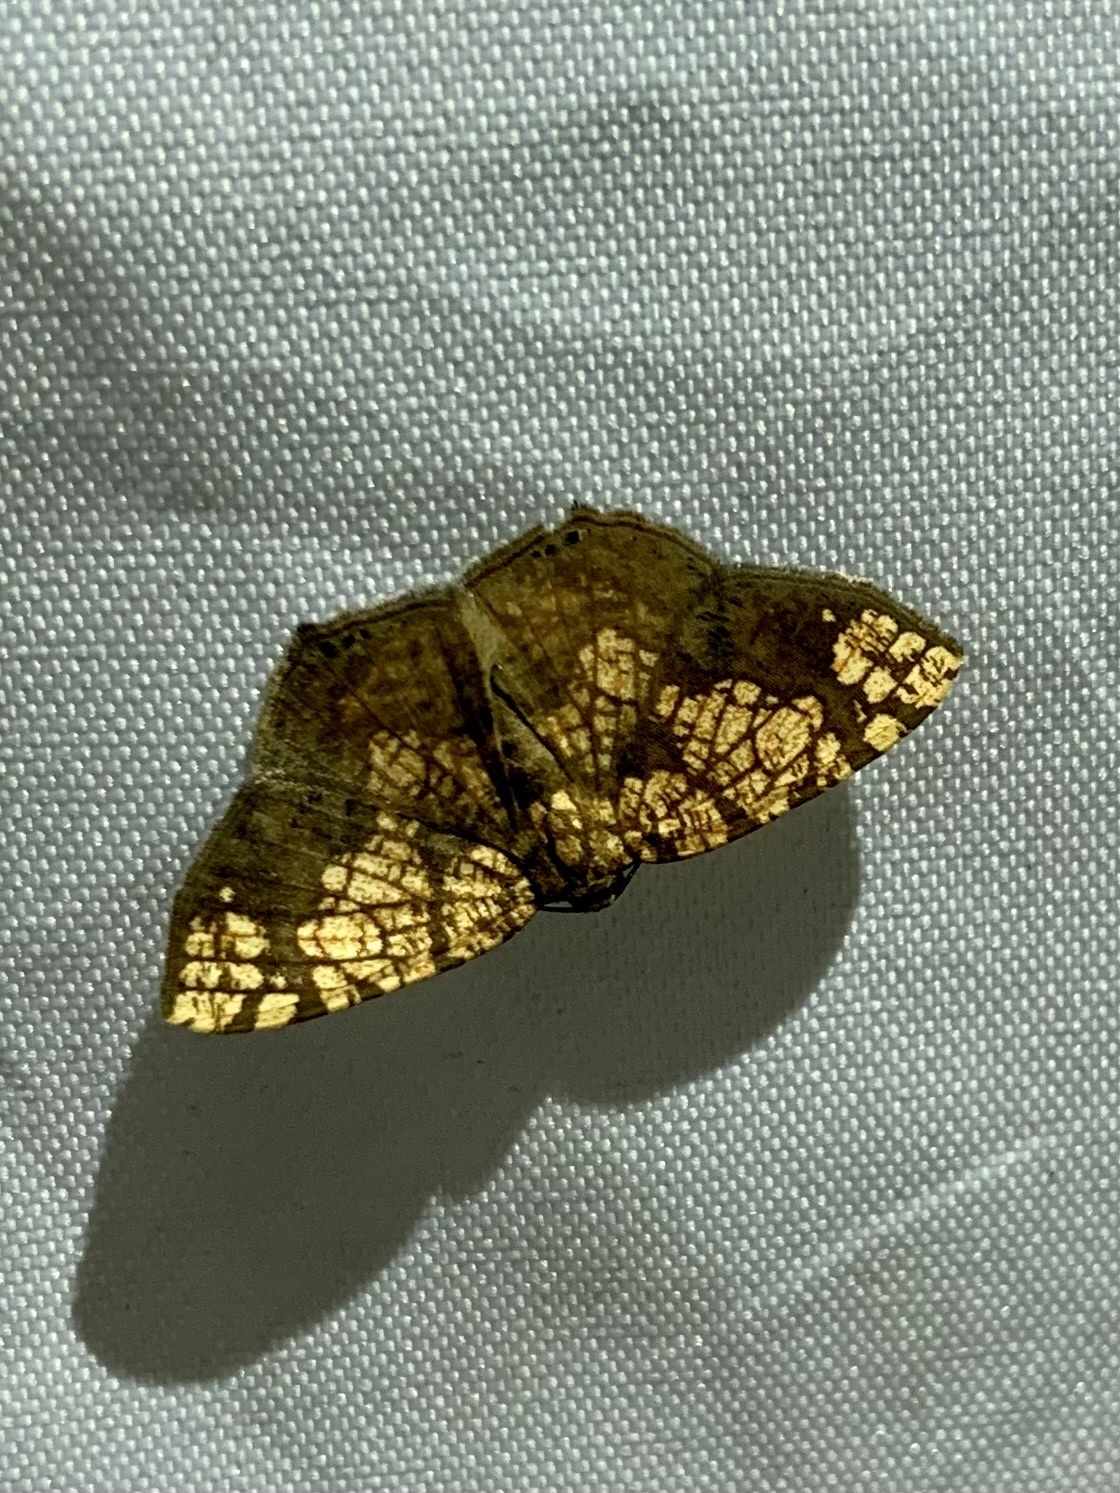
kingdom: Animalia
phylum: Arthropoda
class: Insecta
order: Lepidoptera
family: Geometridae
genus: Nematocampa
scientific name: Nematocampa reticulata
